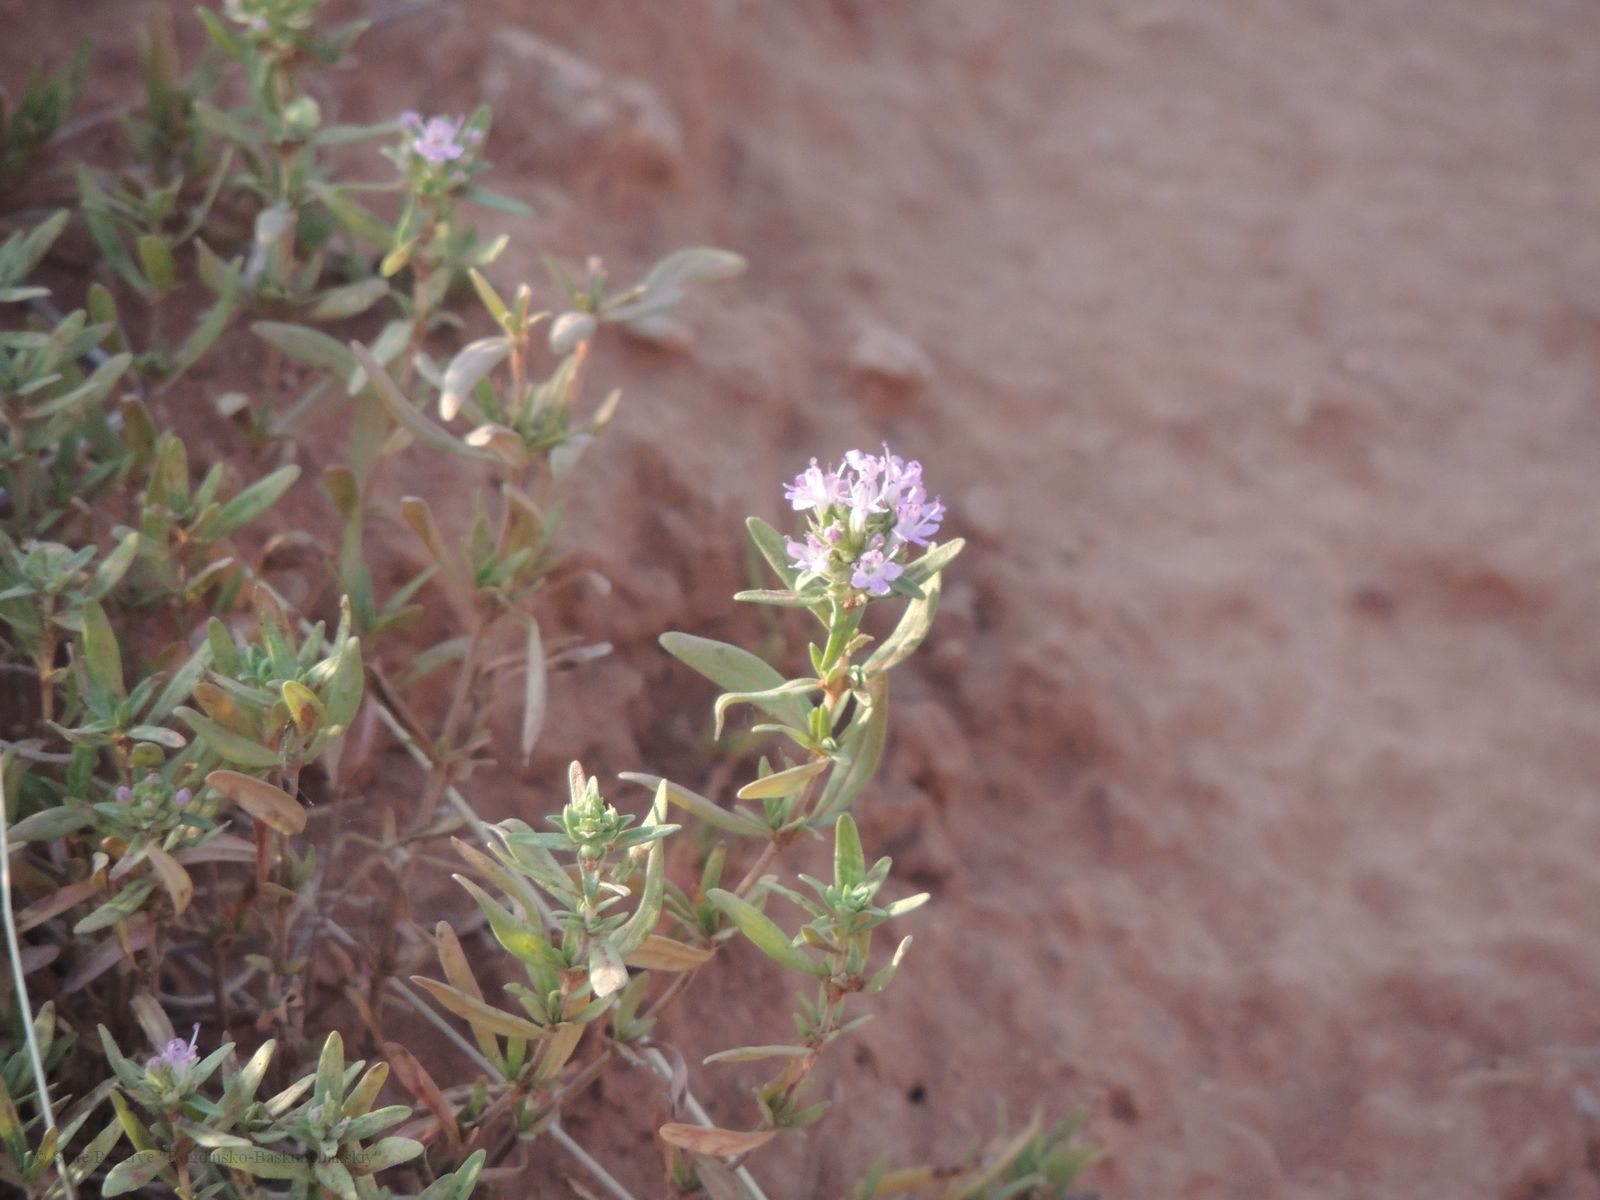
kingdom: Plantae
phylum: Tracheophyta
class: Magnoliopsida
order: Lamiales
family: Lamiaceae
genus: Thymus
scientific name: Thymus kirgisorum
